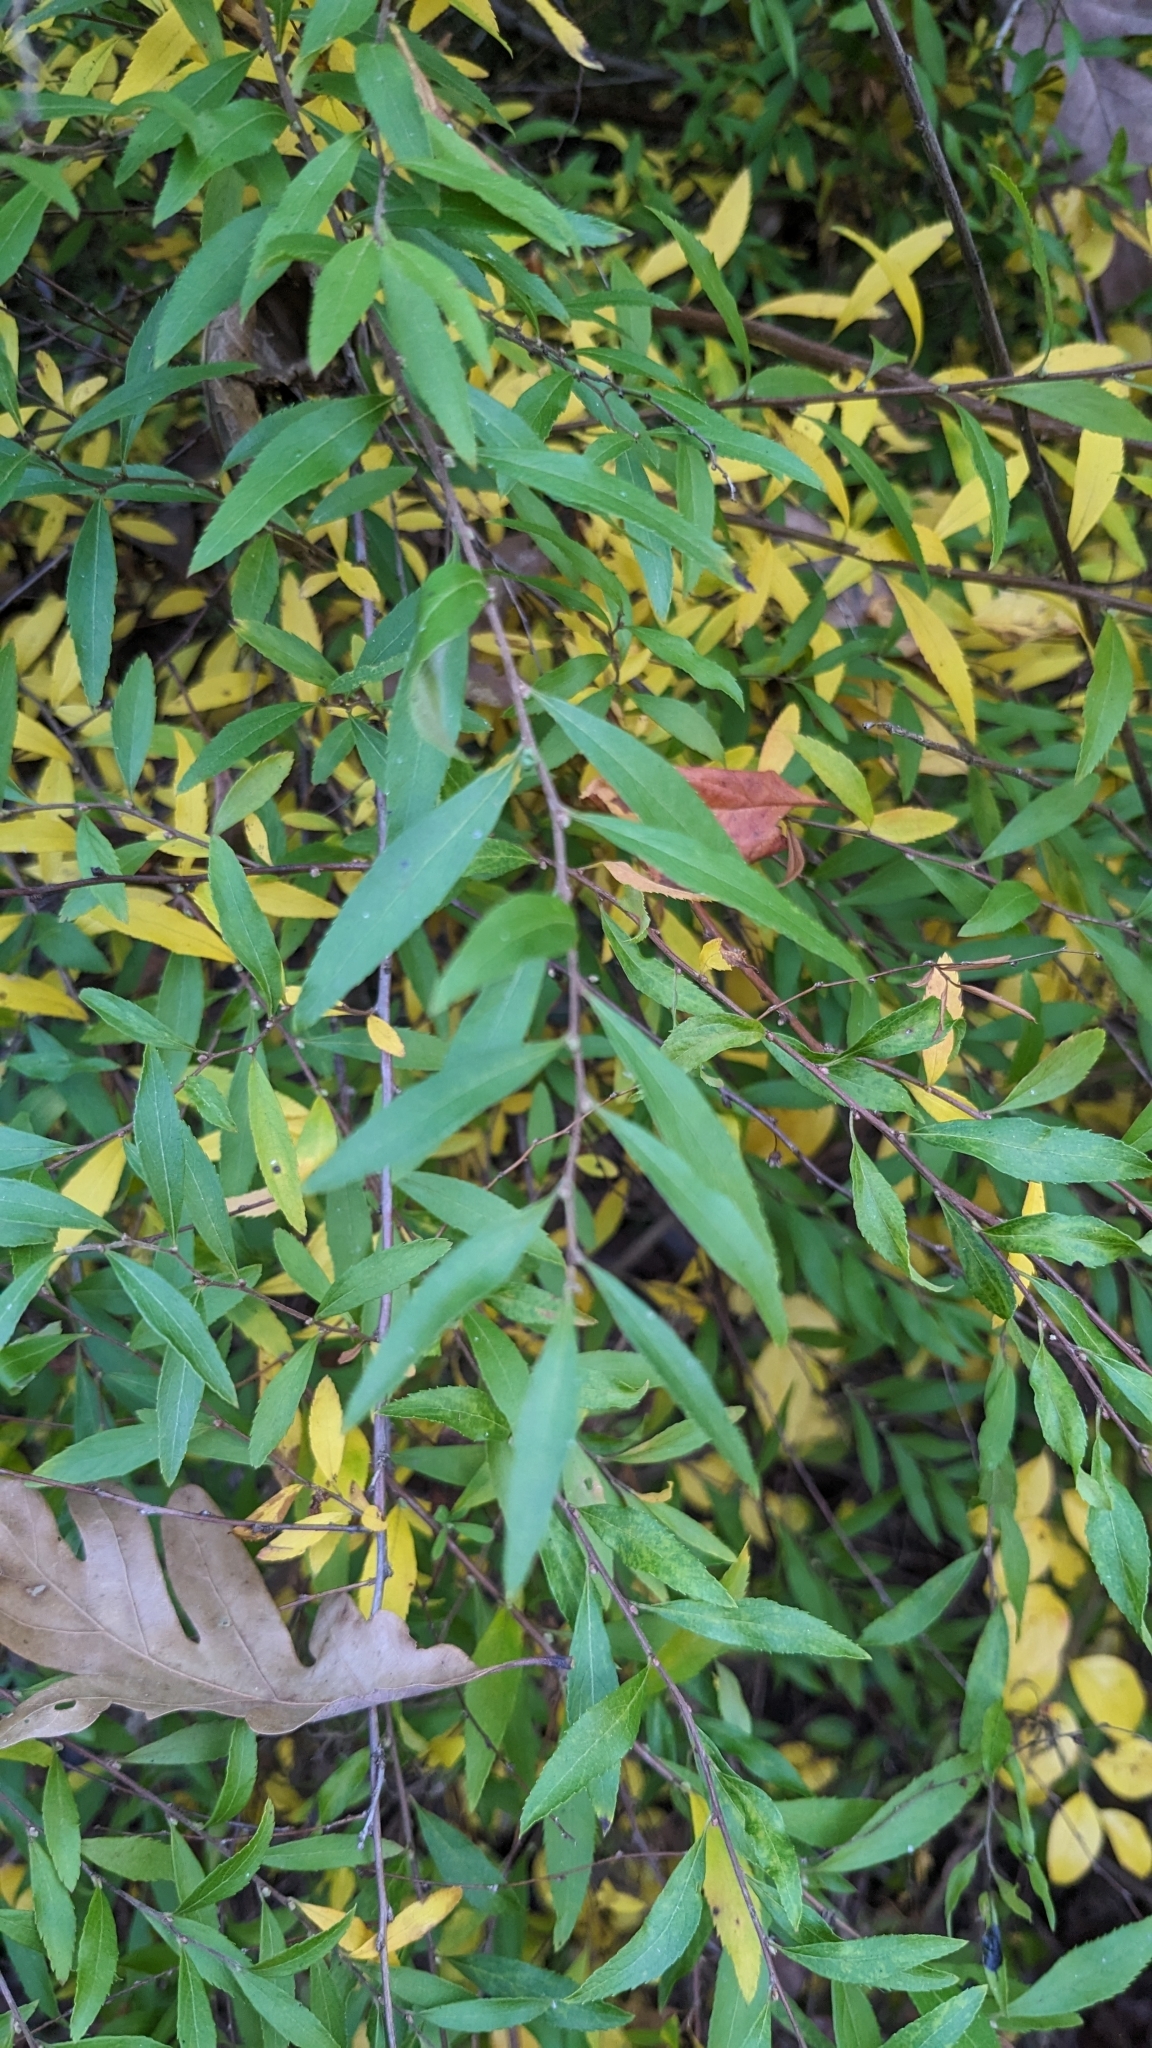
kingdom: Plantae
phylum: Tracheophyta
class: Magnoliopsida
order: Rosales
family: Rosaceae
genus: Spiraea
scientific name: Spiraea thunbergii
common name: Thunberg's meadowsweet
